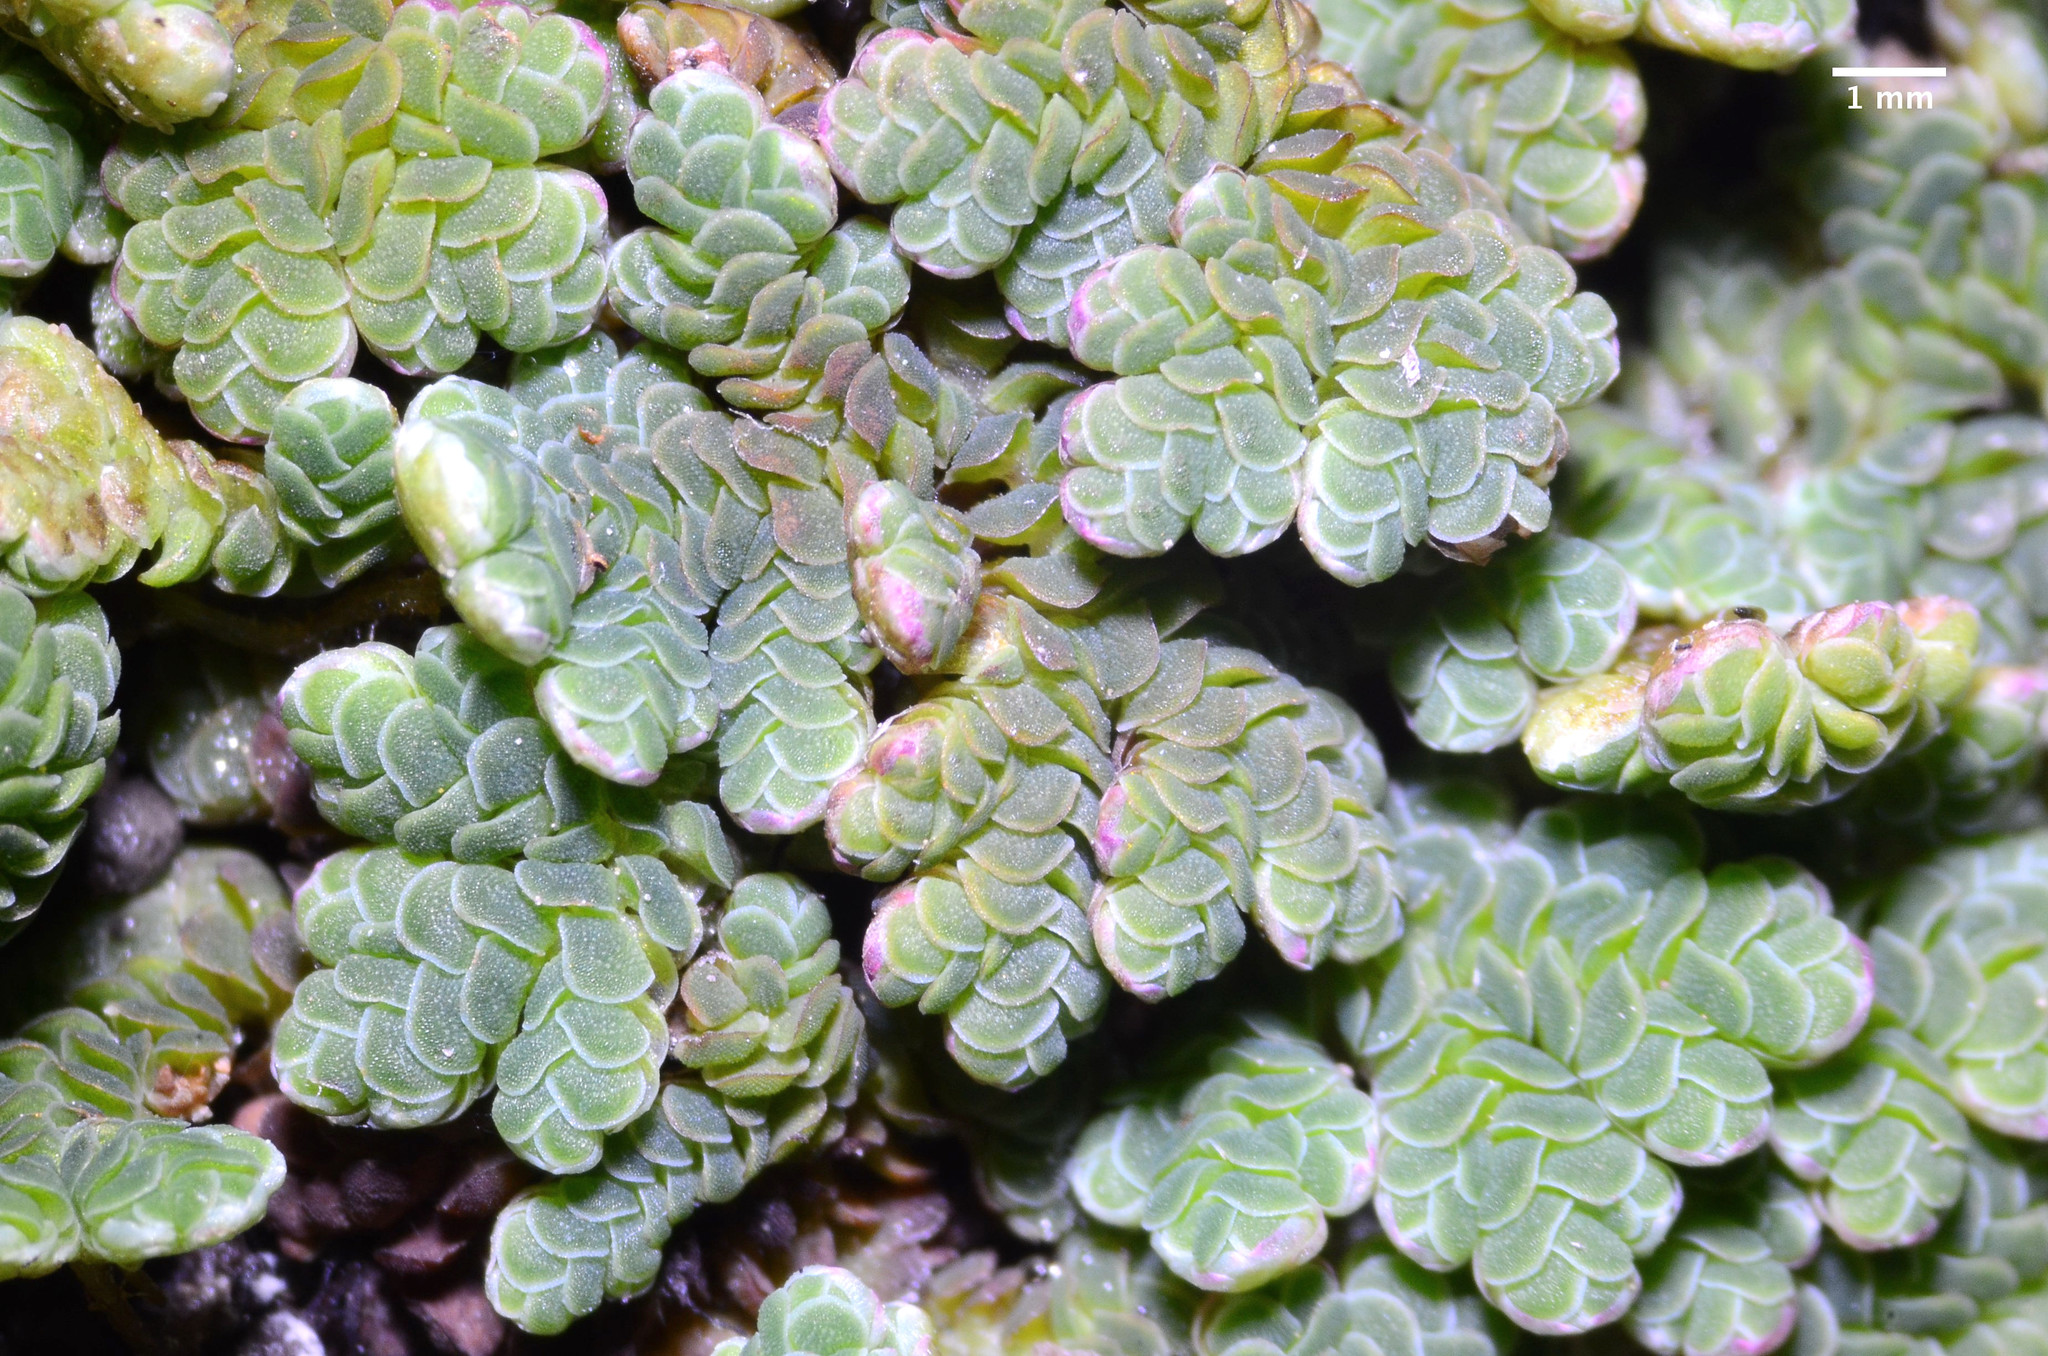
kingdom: Plantae
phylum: Tracheophyta
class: Polypodiopsida
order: Salviniales
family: Salviniaceae
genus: Azolla
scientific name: Azolla filiculoides
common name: Water fern
